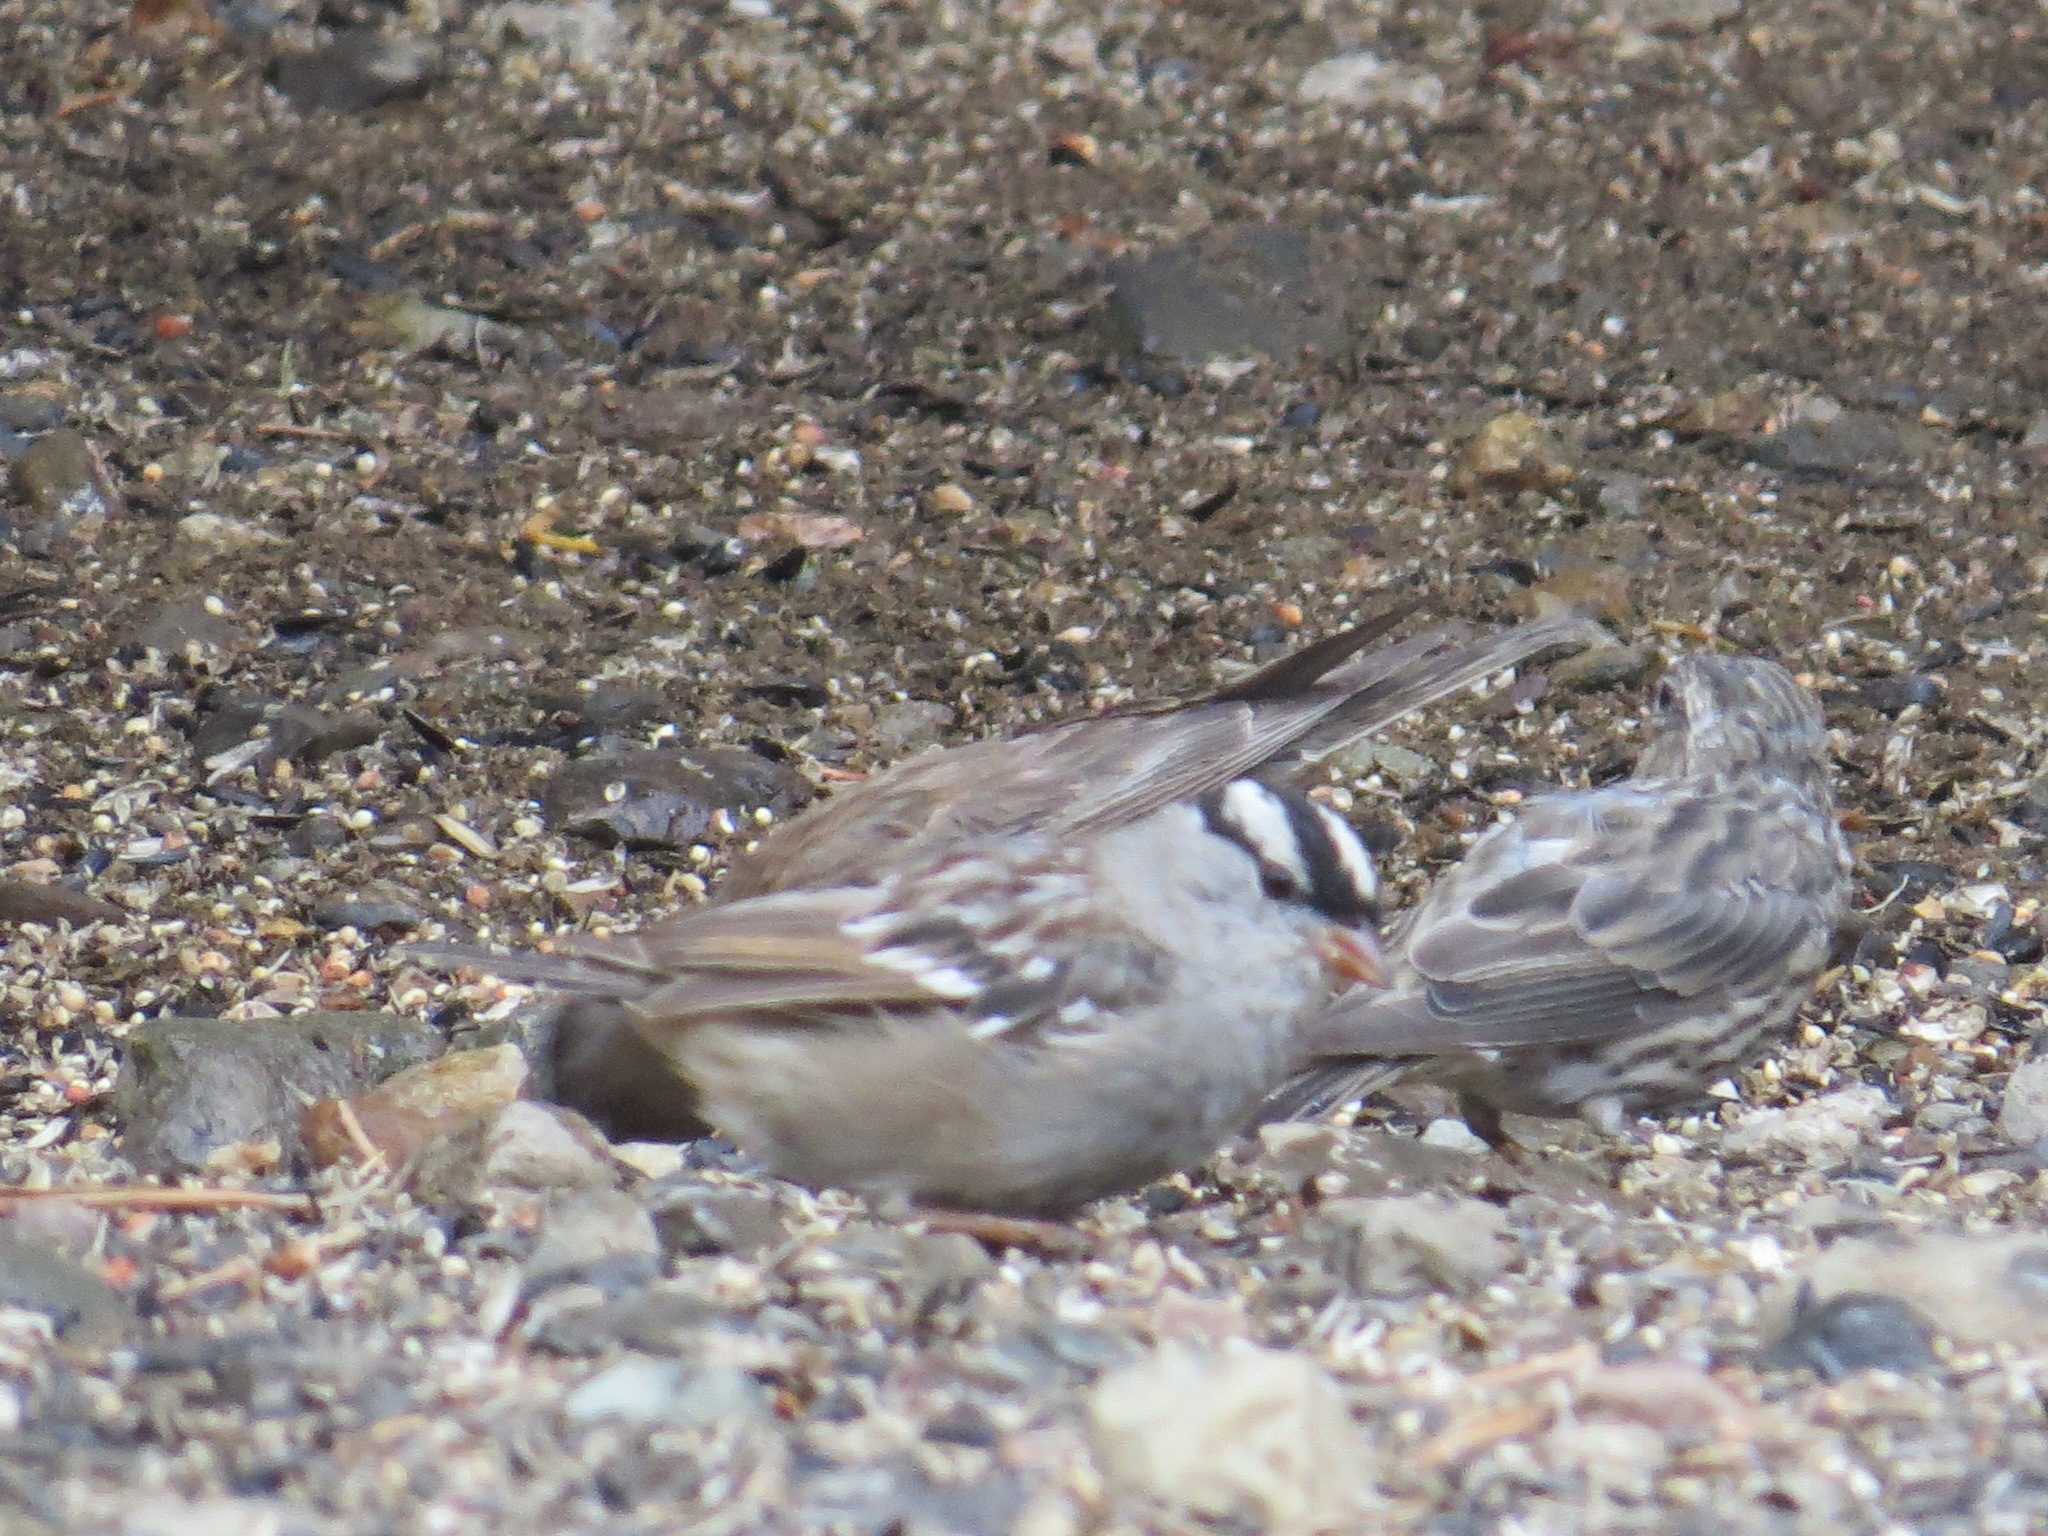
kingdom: Animalia
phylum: Chordata
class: Aves
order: Passeriformes
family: Passerellidae
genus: Zonotrichia
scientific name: Zonotrichia leucophrys
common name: White-crowned sparrow
